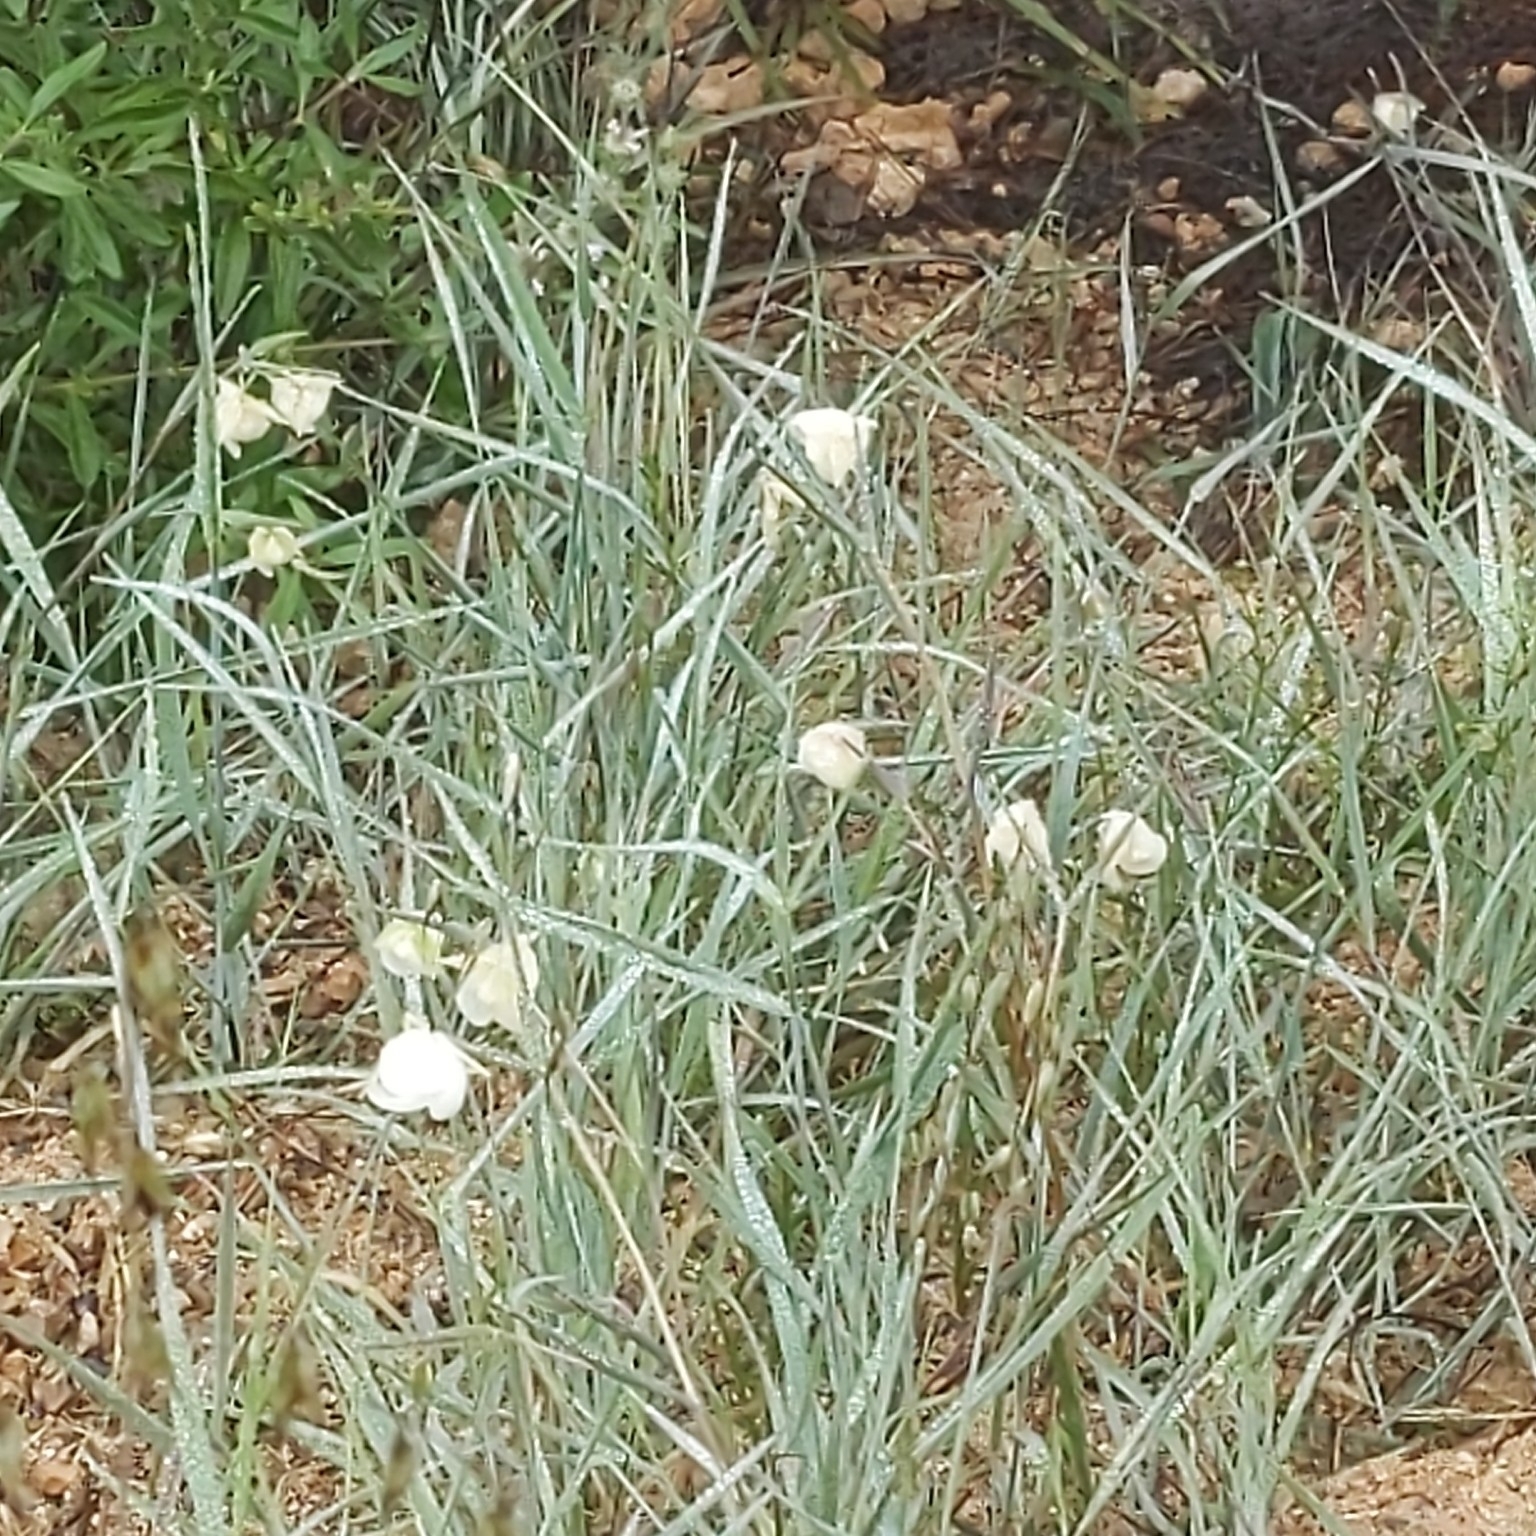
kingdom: Plantae
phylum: Tracheophyta
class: Liliopsida
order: Liliales
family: Liliaceae
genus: Calochortus
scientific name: Calochortus albus
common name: Fairy-lantern
